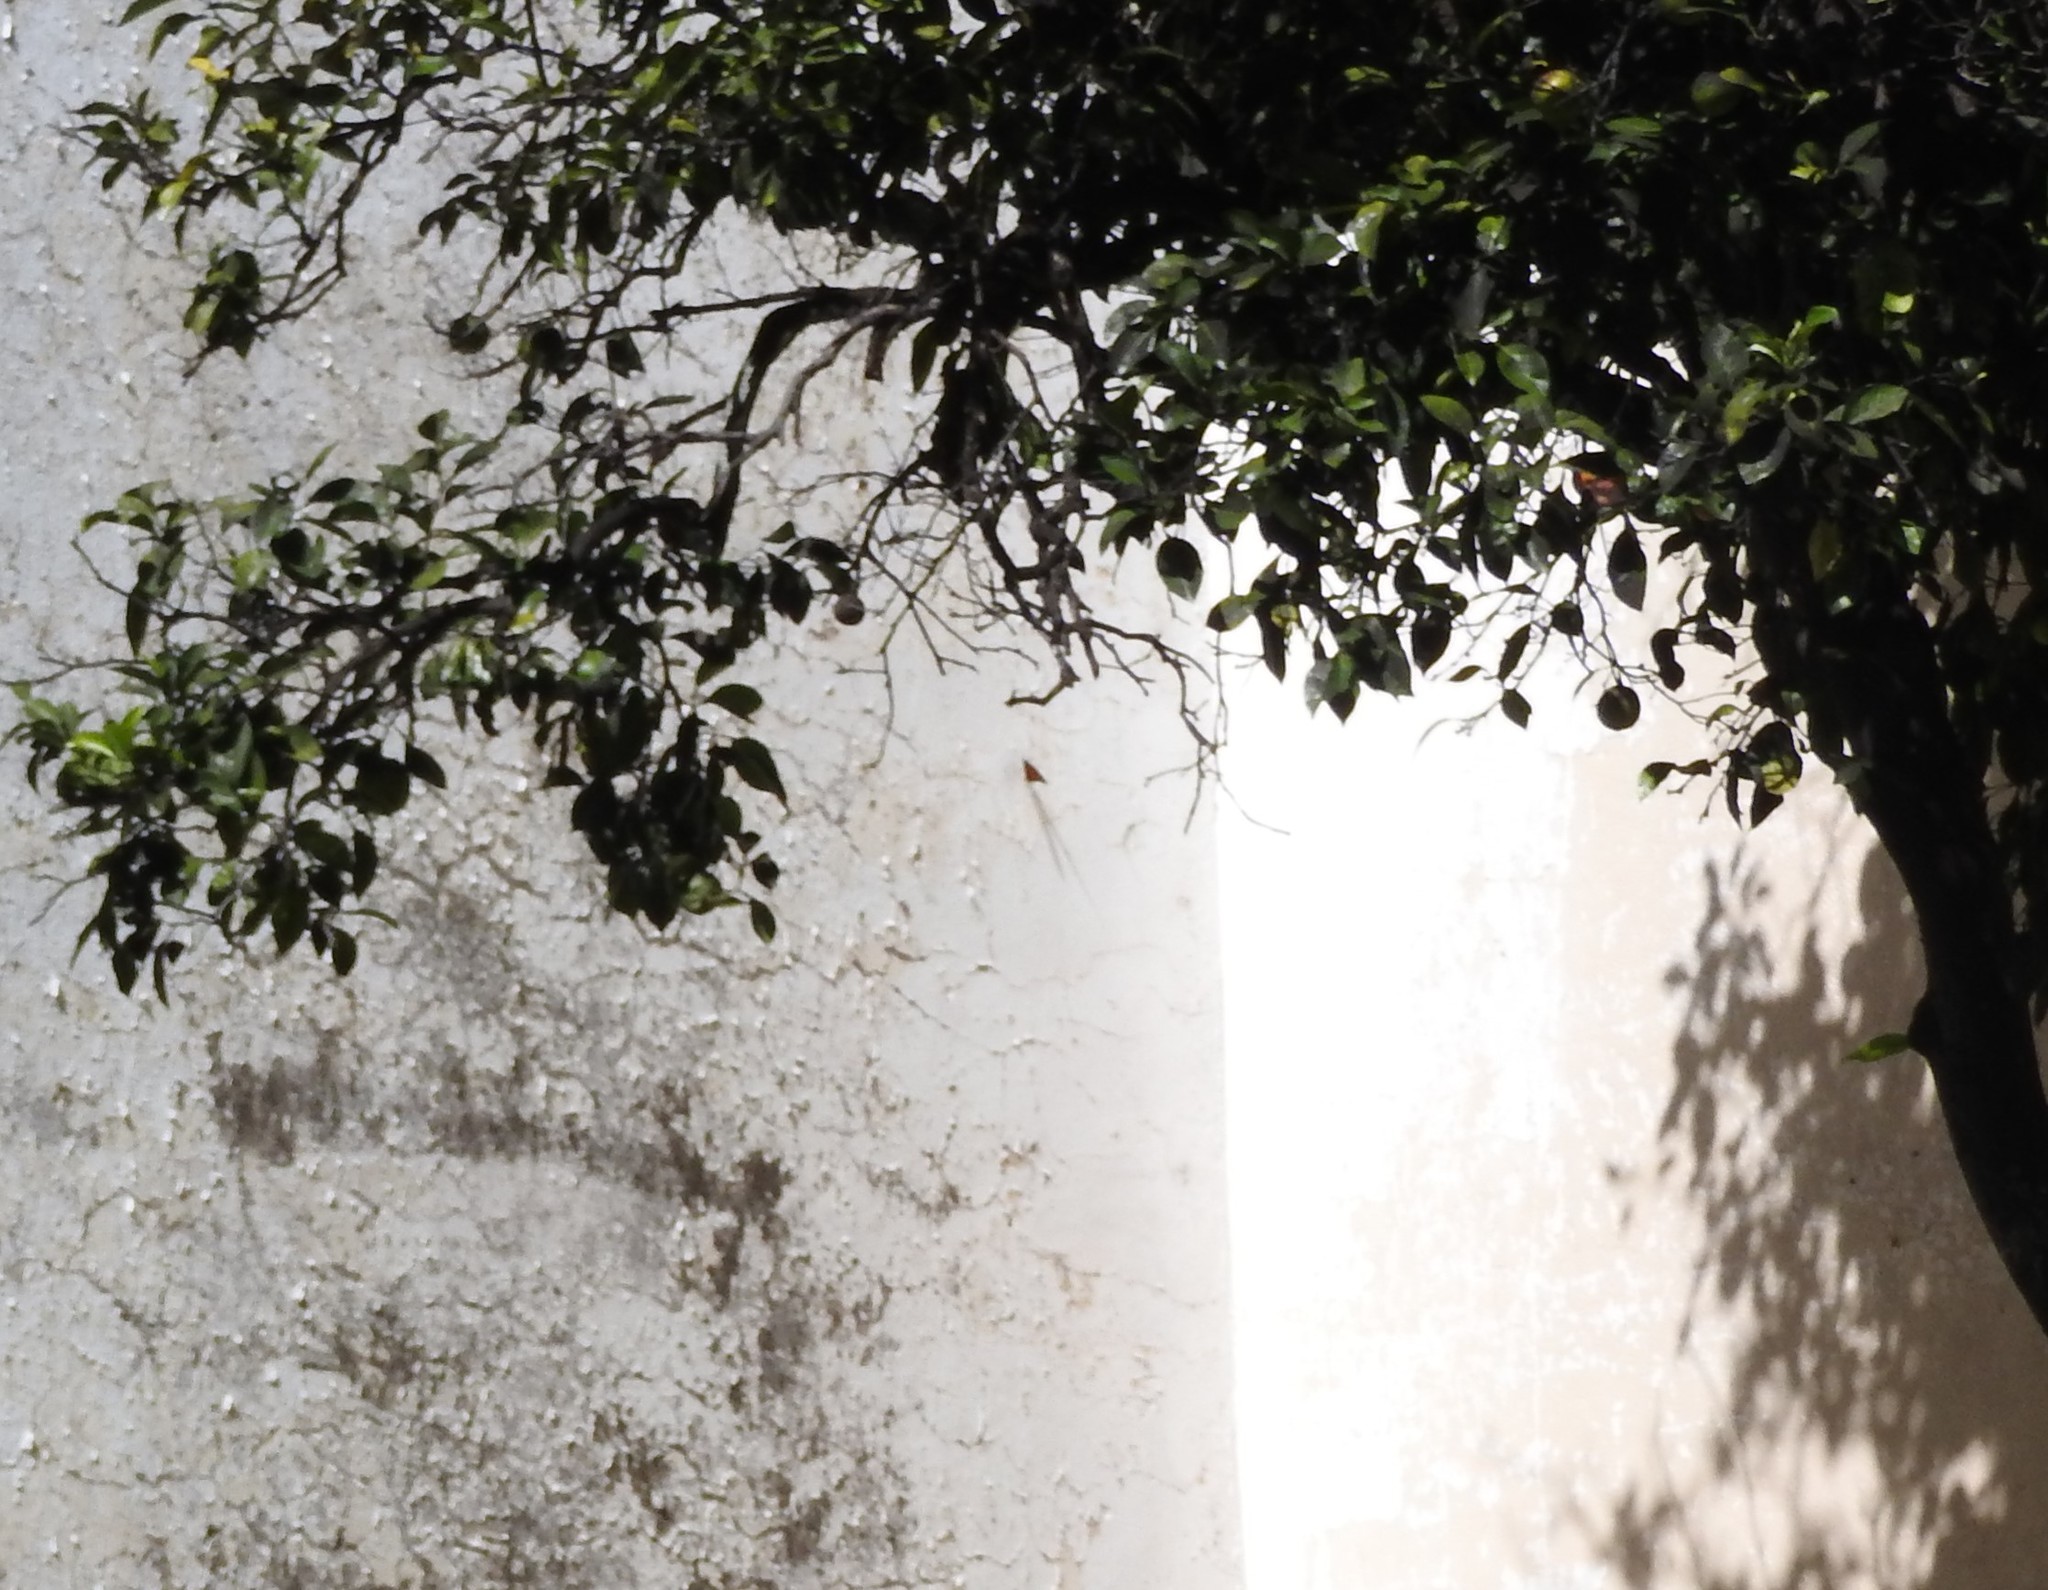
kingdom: Animalia
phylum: Arthropoda
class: Insecta
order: Lepidoptera
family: Nymphalidae
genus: Danaus
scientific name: Danaus plexippus
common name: Monarch
